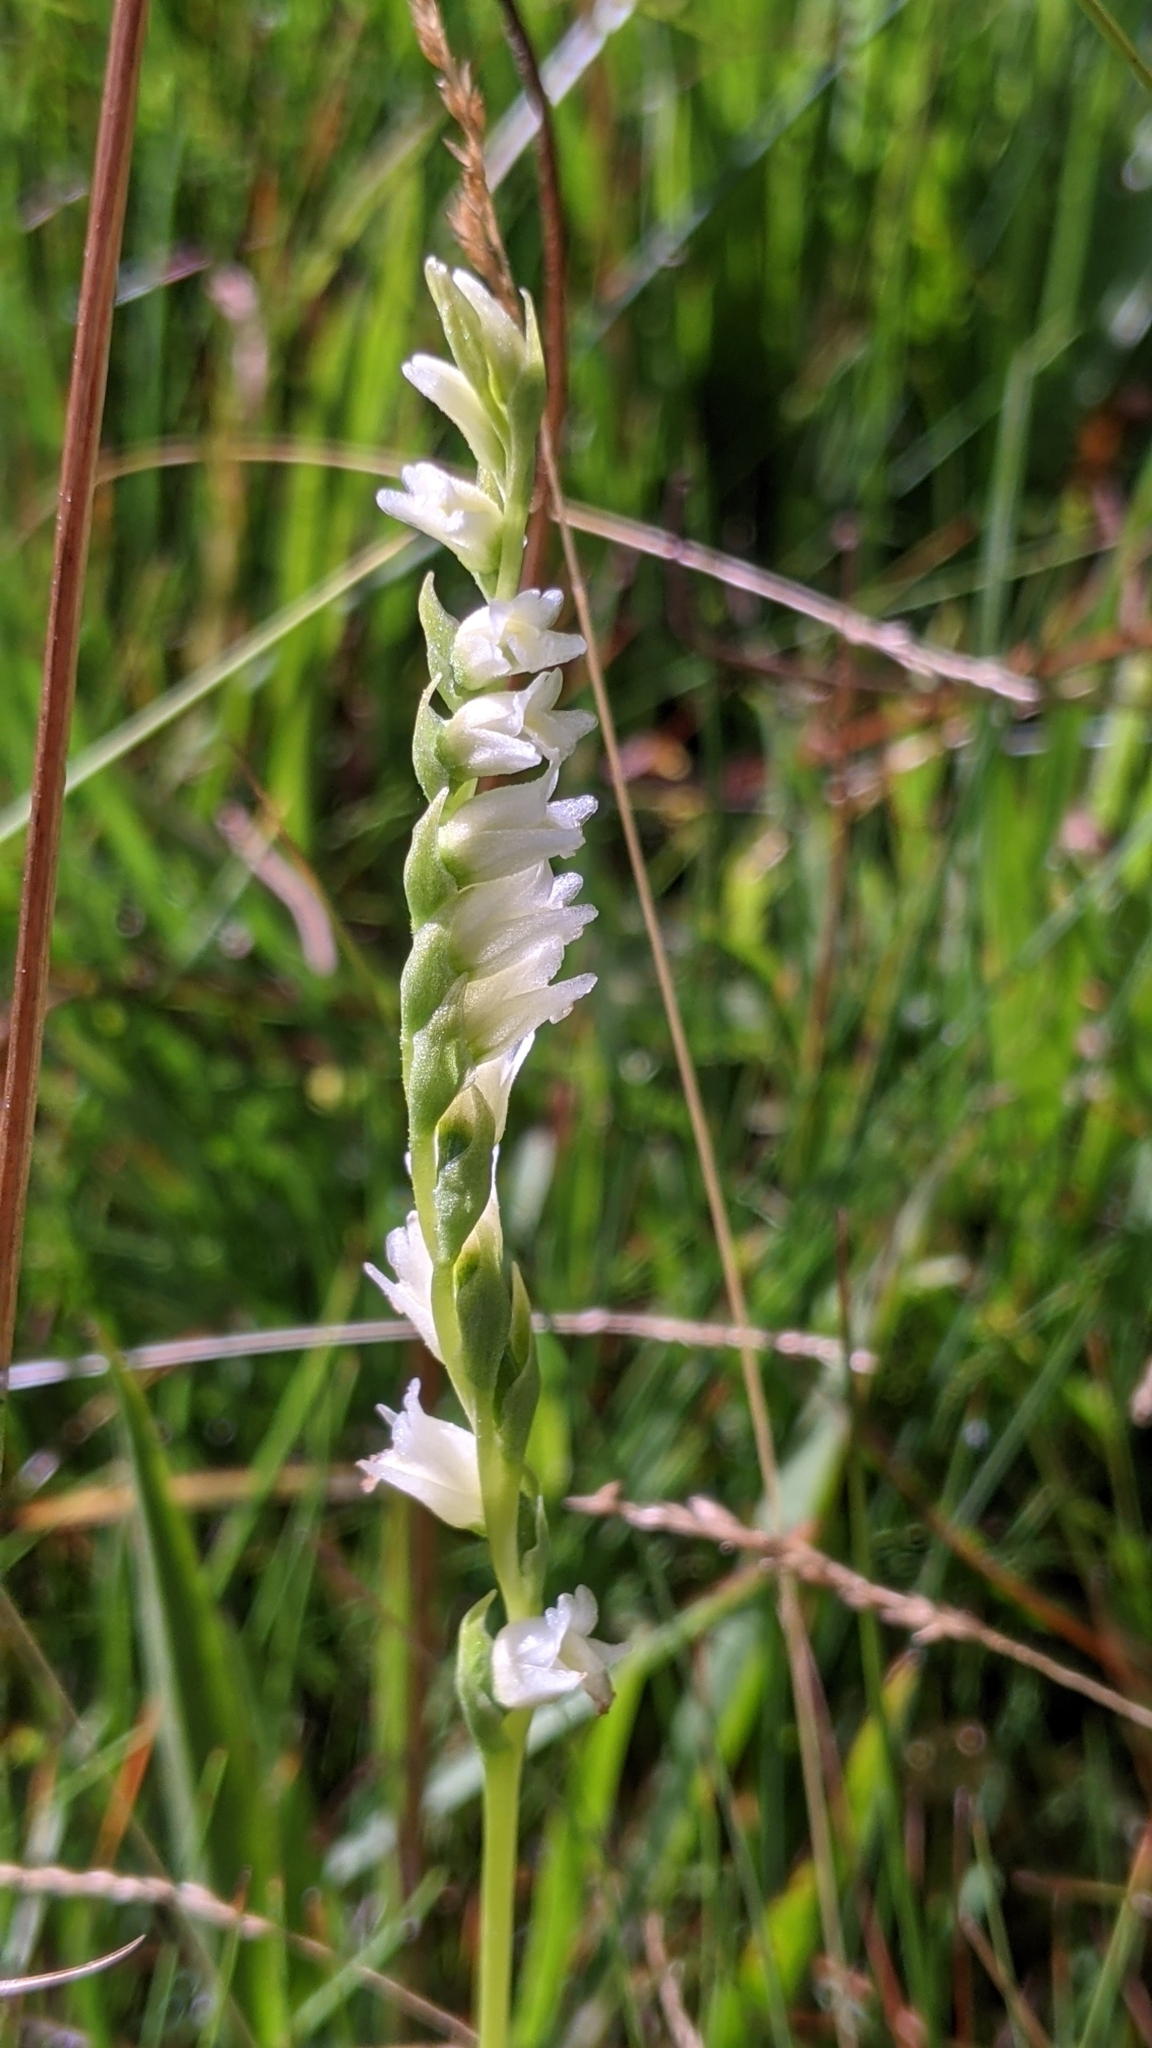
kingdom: Plantae
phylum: Tracheophyta
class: Liliopsida
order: Asparagales
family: Orchidaceae
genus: Spiranthes
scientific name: Spiranthes perexilis
